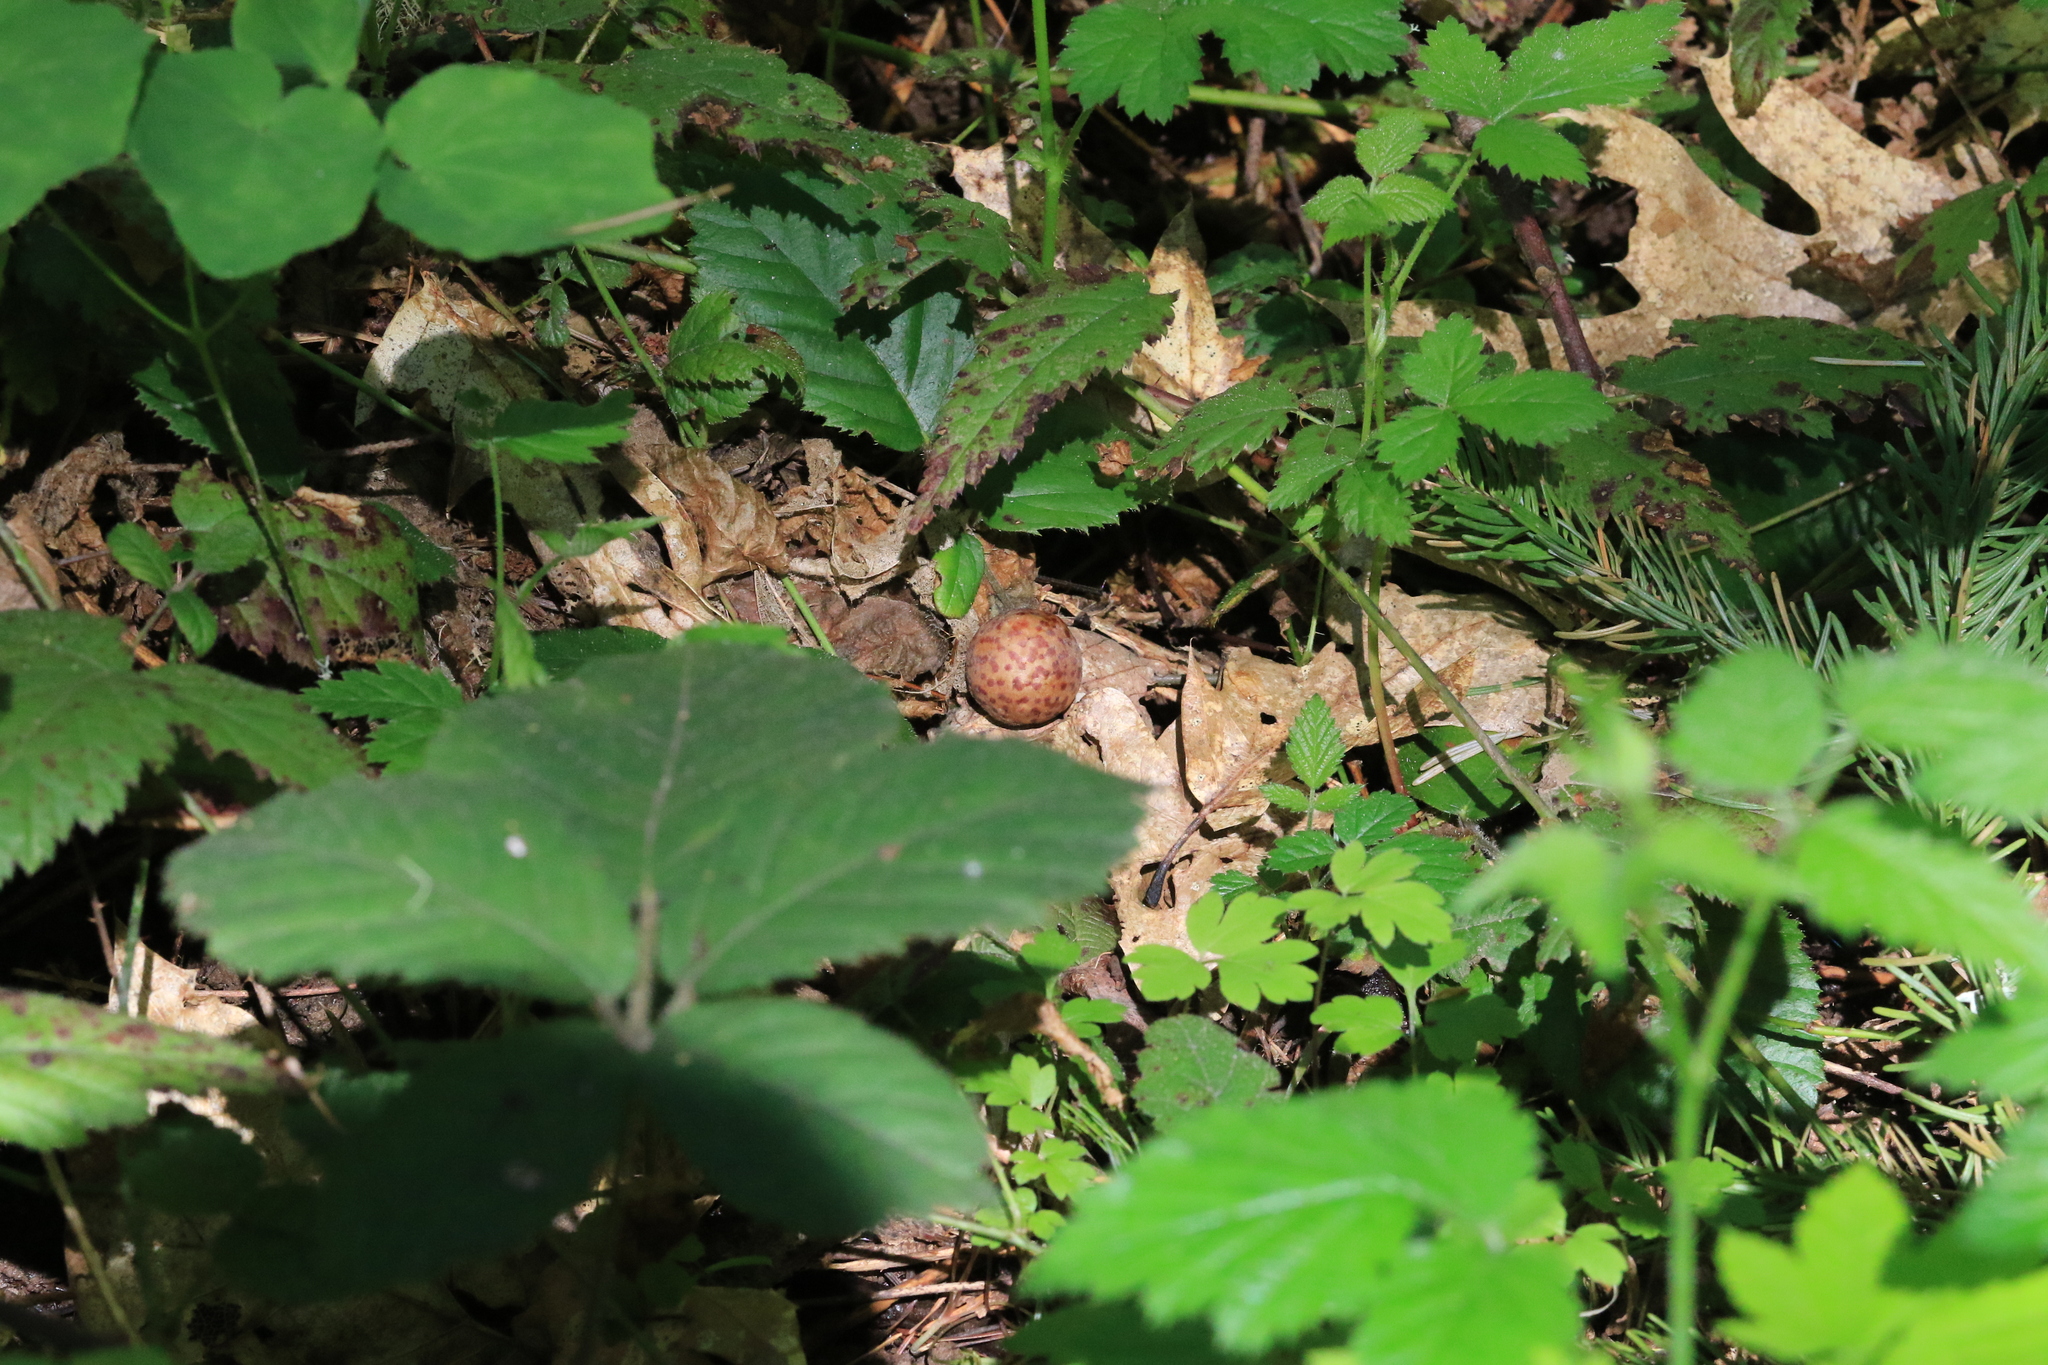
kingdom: Animalia
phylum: Arthropoda
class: Insecta
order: Hymenoptera
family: Cynipidae
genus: Cynips
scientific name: Cynips
